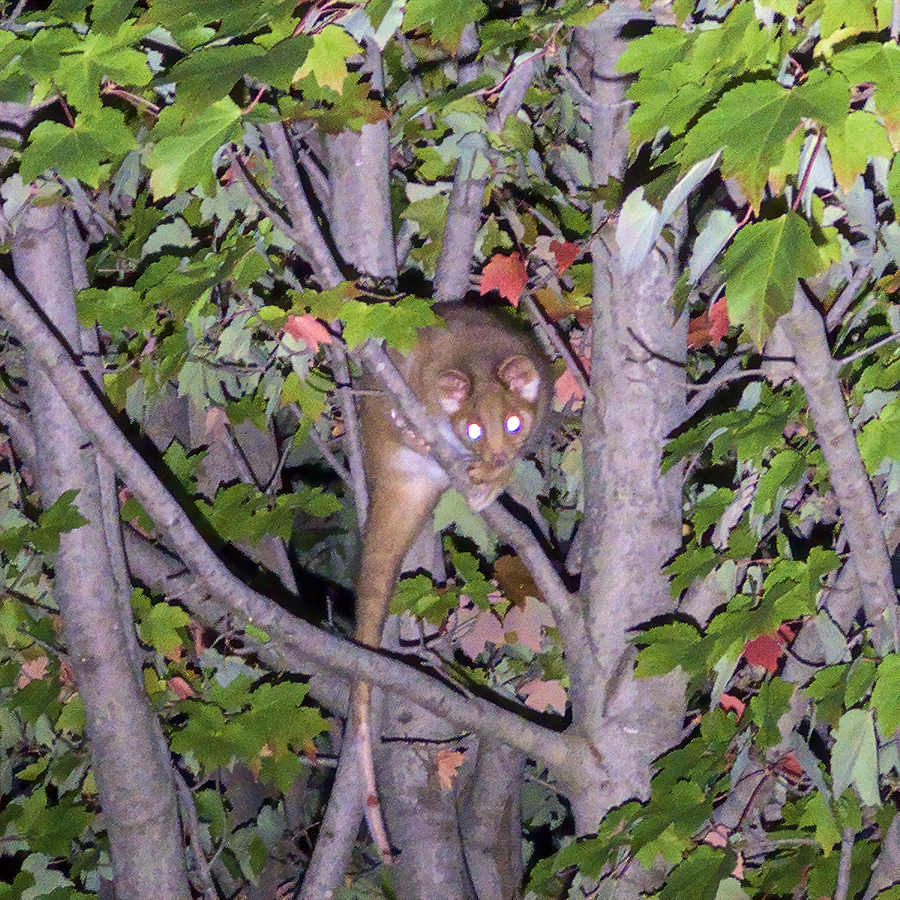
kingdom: Animalia
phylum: Chordata
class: Mammalia
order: Diprotodontia
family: Pseudocheiridae
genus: Pseudocheirus
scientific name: Pseudocheirus peregrinus
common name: Common ringtail possum
